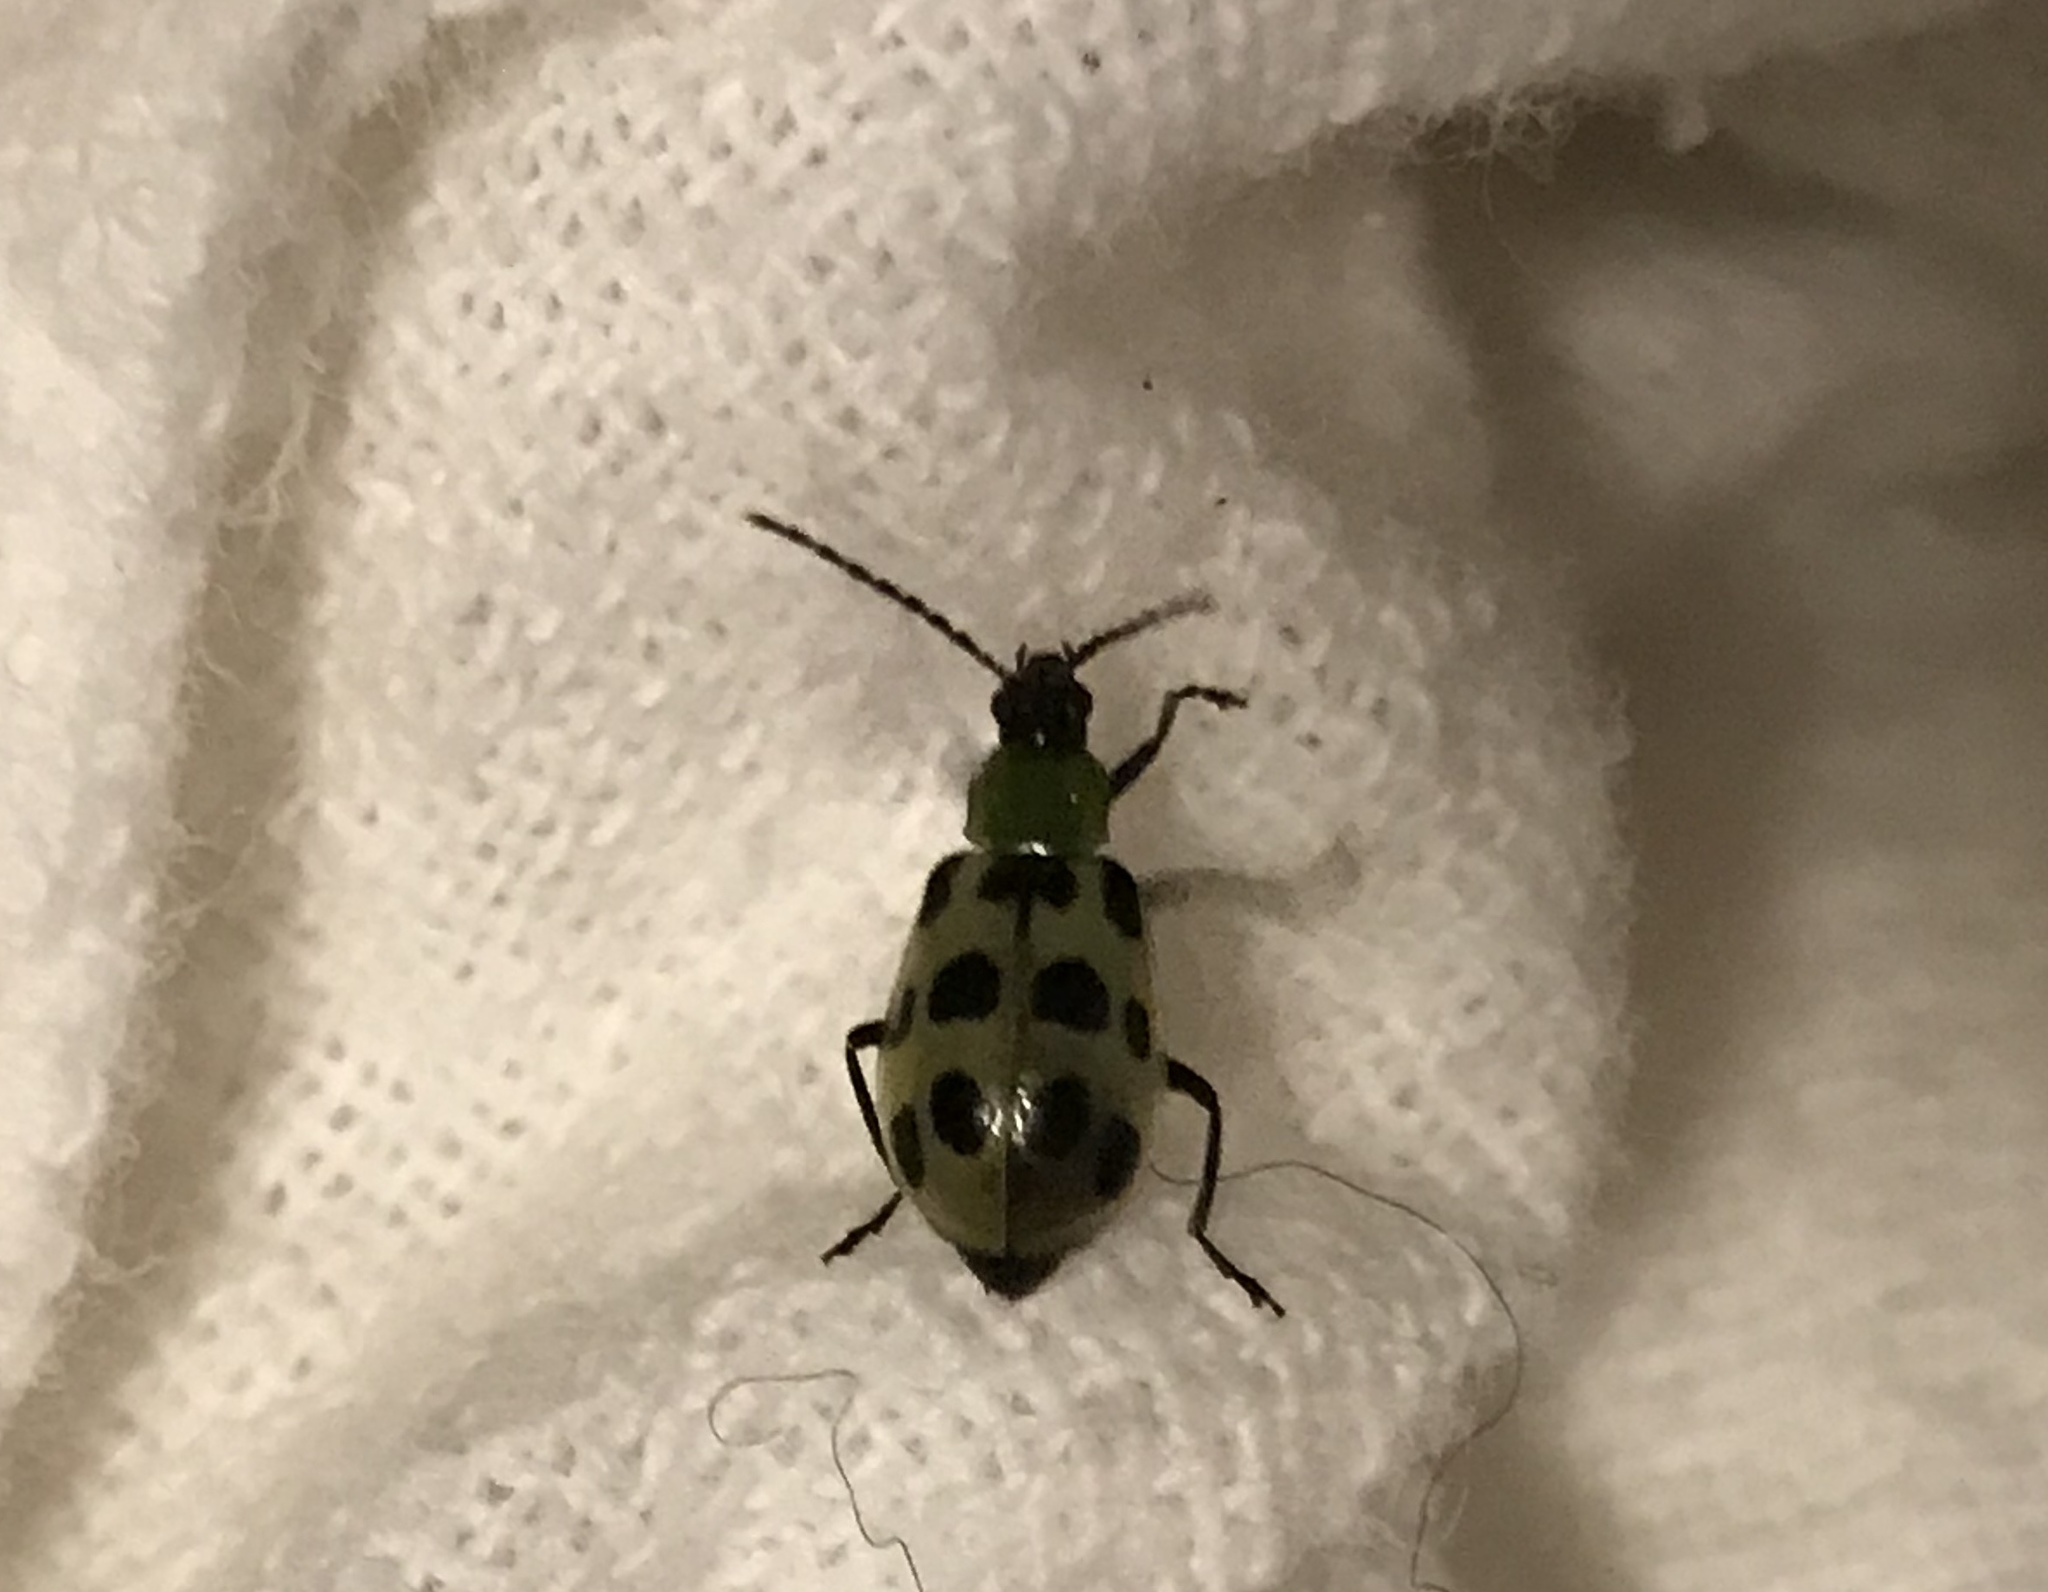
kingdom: Animalia
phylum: Arthropoda
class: Insecta
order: Coleoptera
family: Chrysomelidae
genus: Diabrotica
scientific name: Diabrotica undecimpunctata
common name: Spotted cucumber beetle
